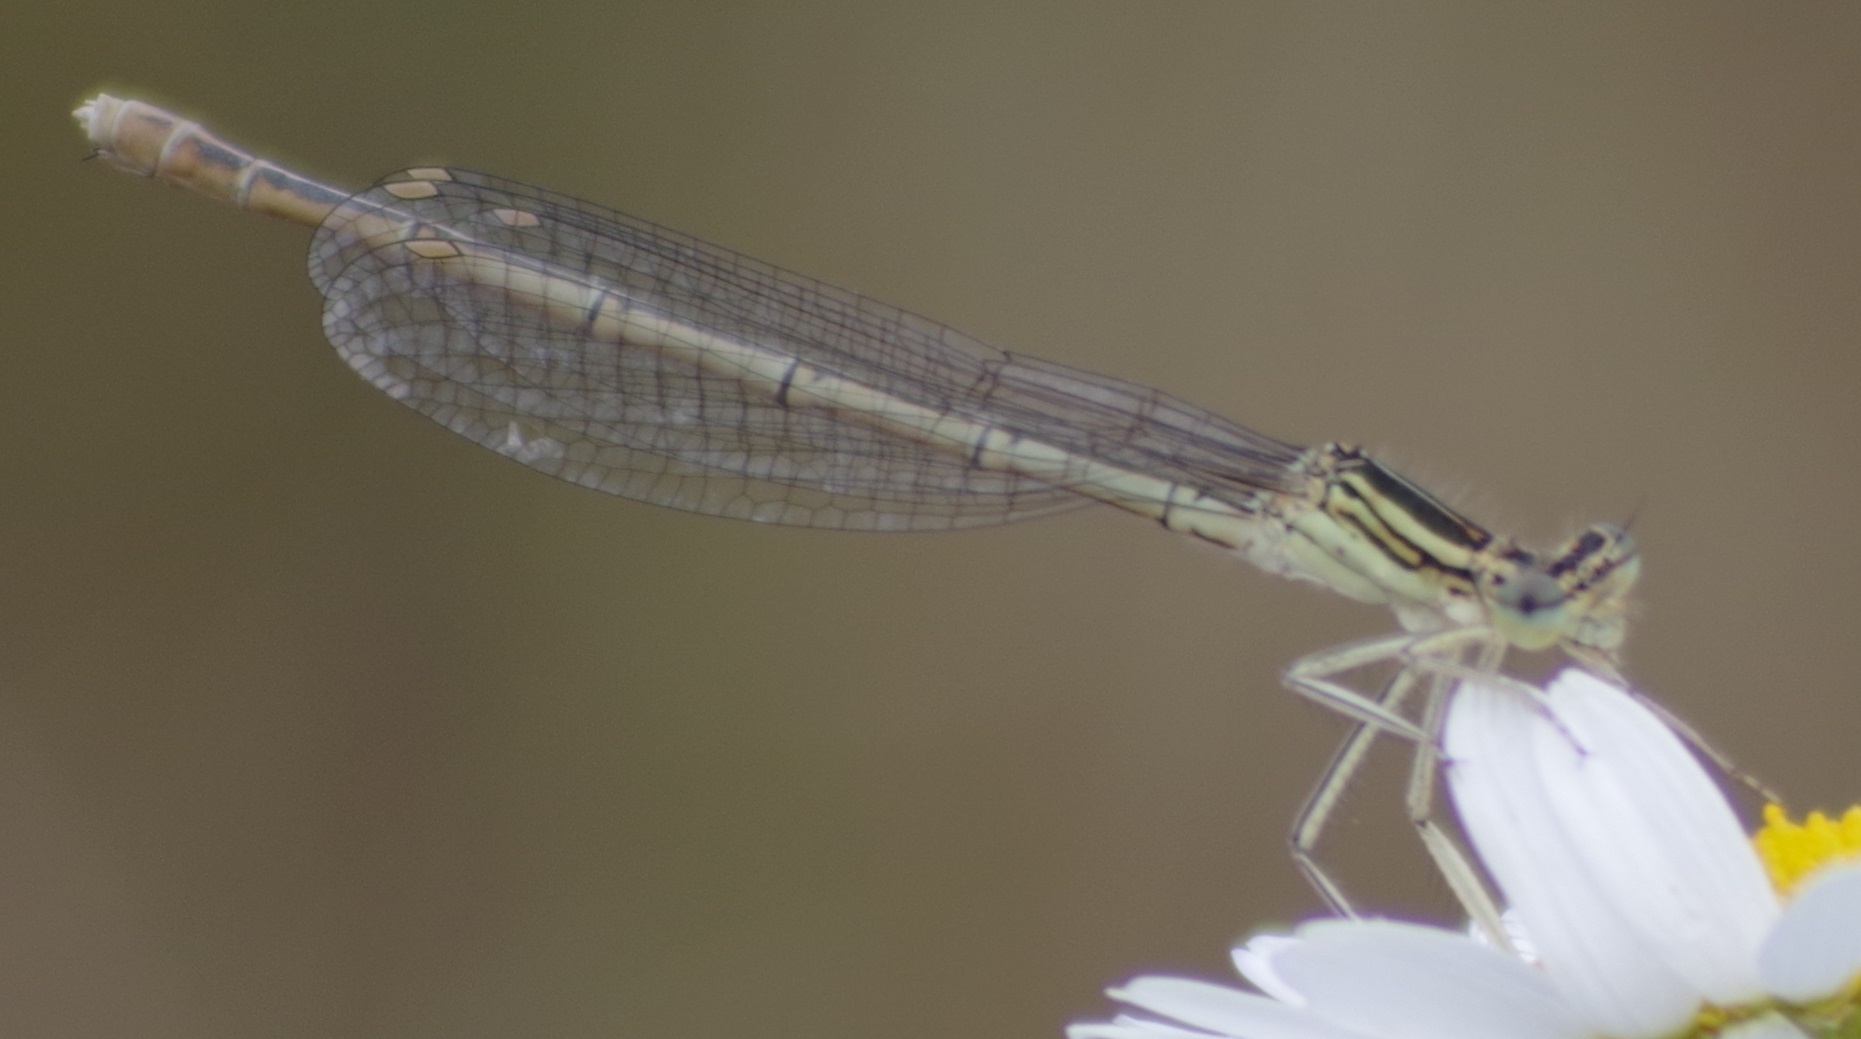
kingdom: Animalia
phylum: Arthropoda
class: Insecta
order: Odonata
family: Platycnemididae
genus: Platycnemis
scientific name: Platycnemis pennipes
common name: White-legged damselfly
